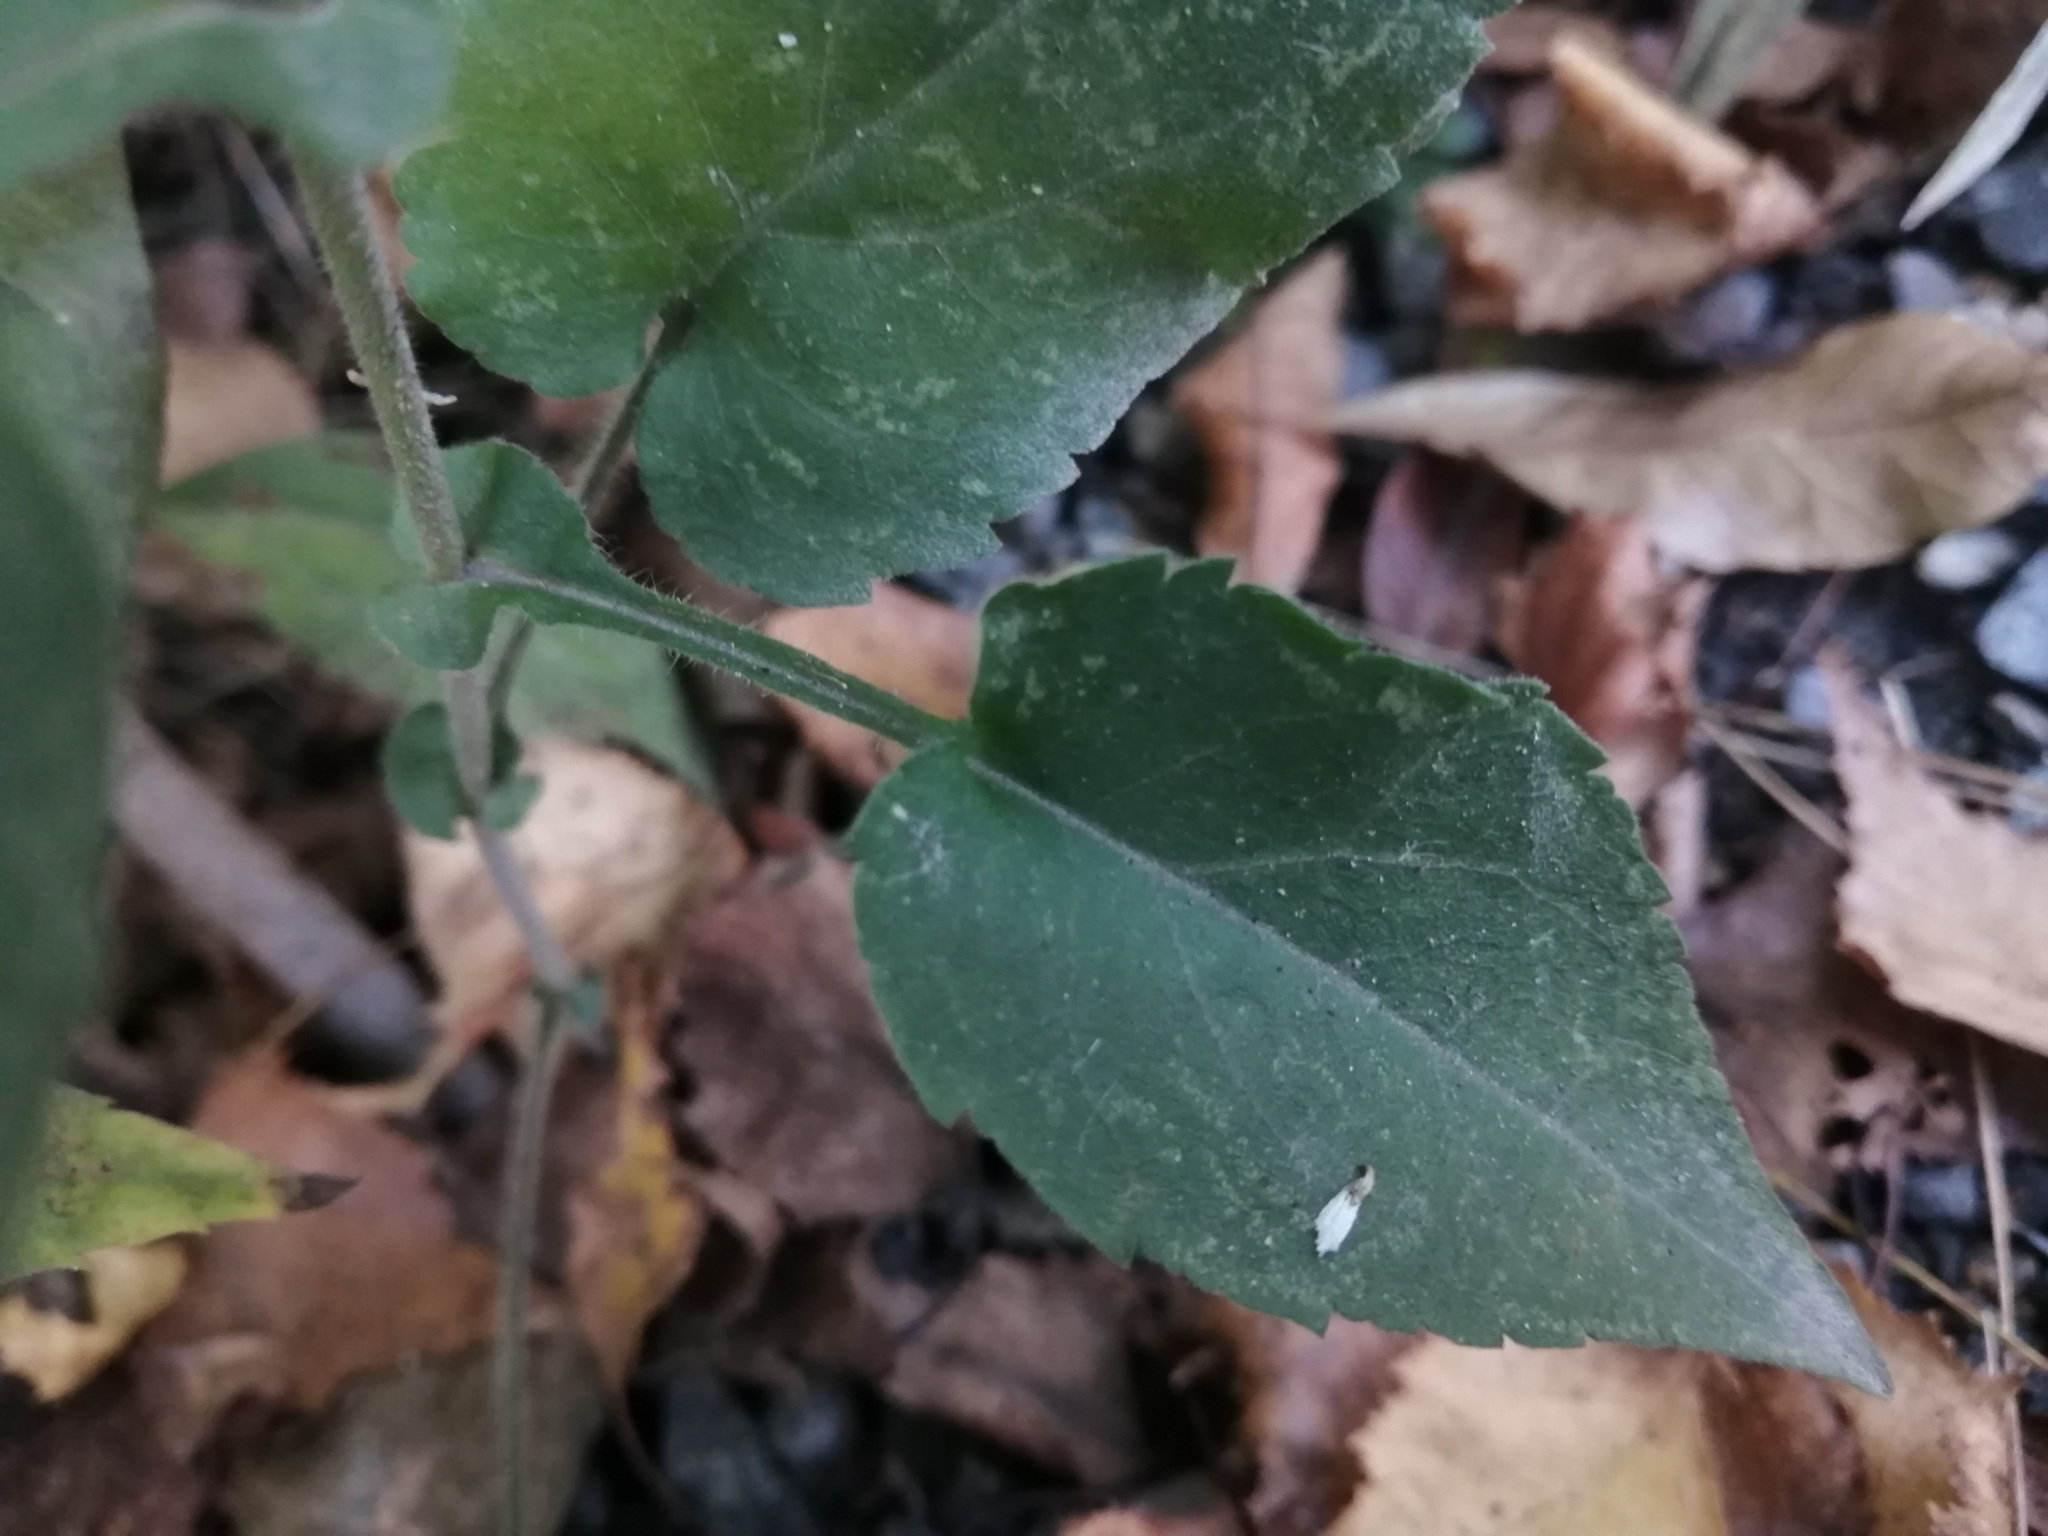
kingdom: Plantae
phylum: Tracheophyta
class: Magnoliopsida
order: Asterales
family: Asteraceae
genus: Symphyotrichum
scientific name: Symphyotrichum undulatum
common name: Clasping heart-leaf aster
